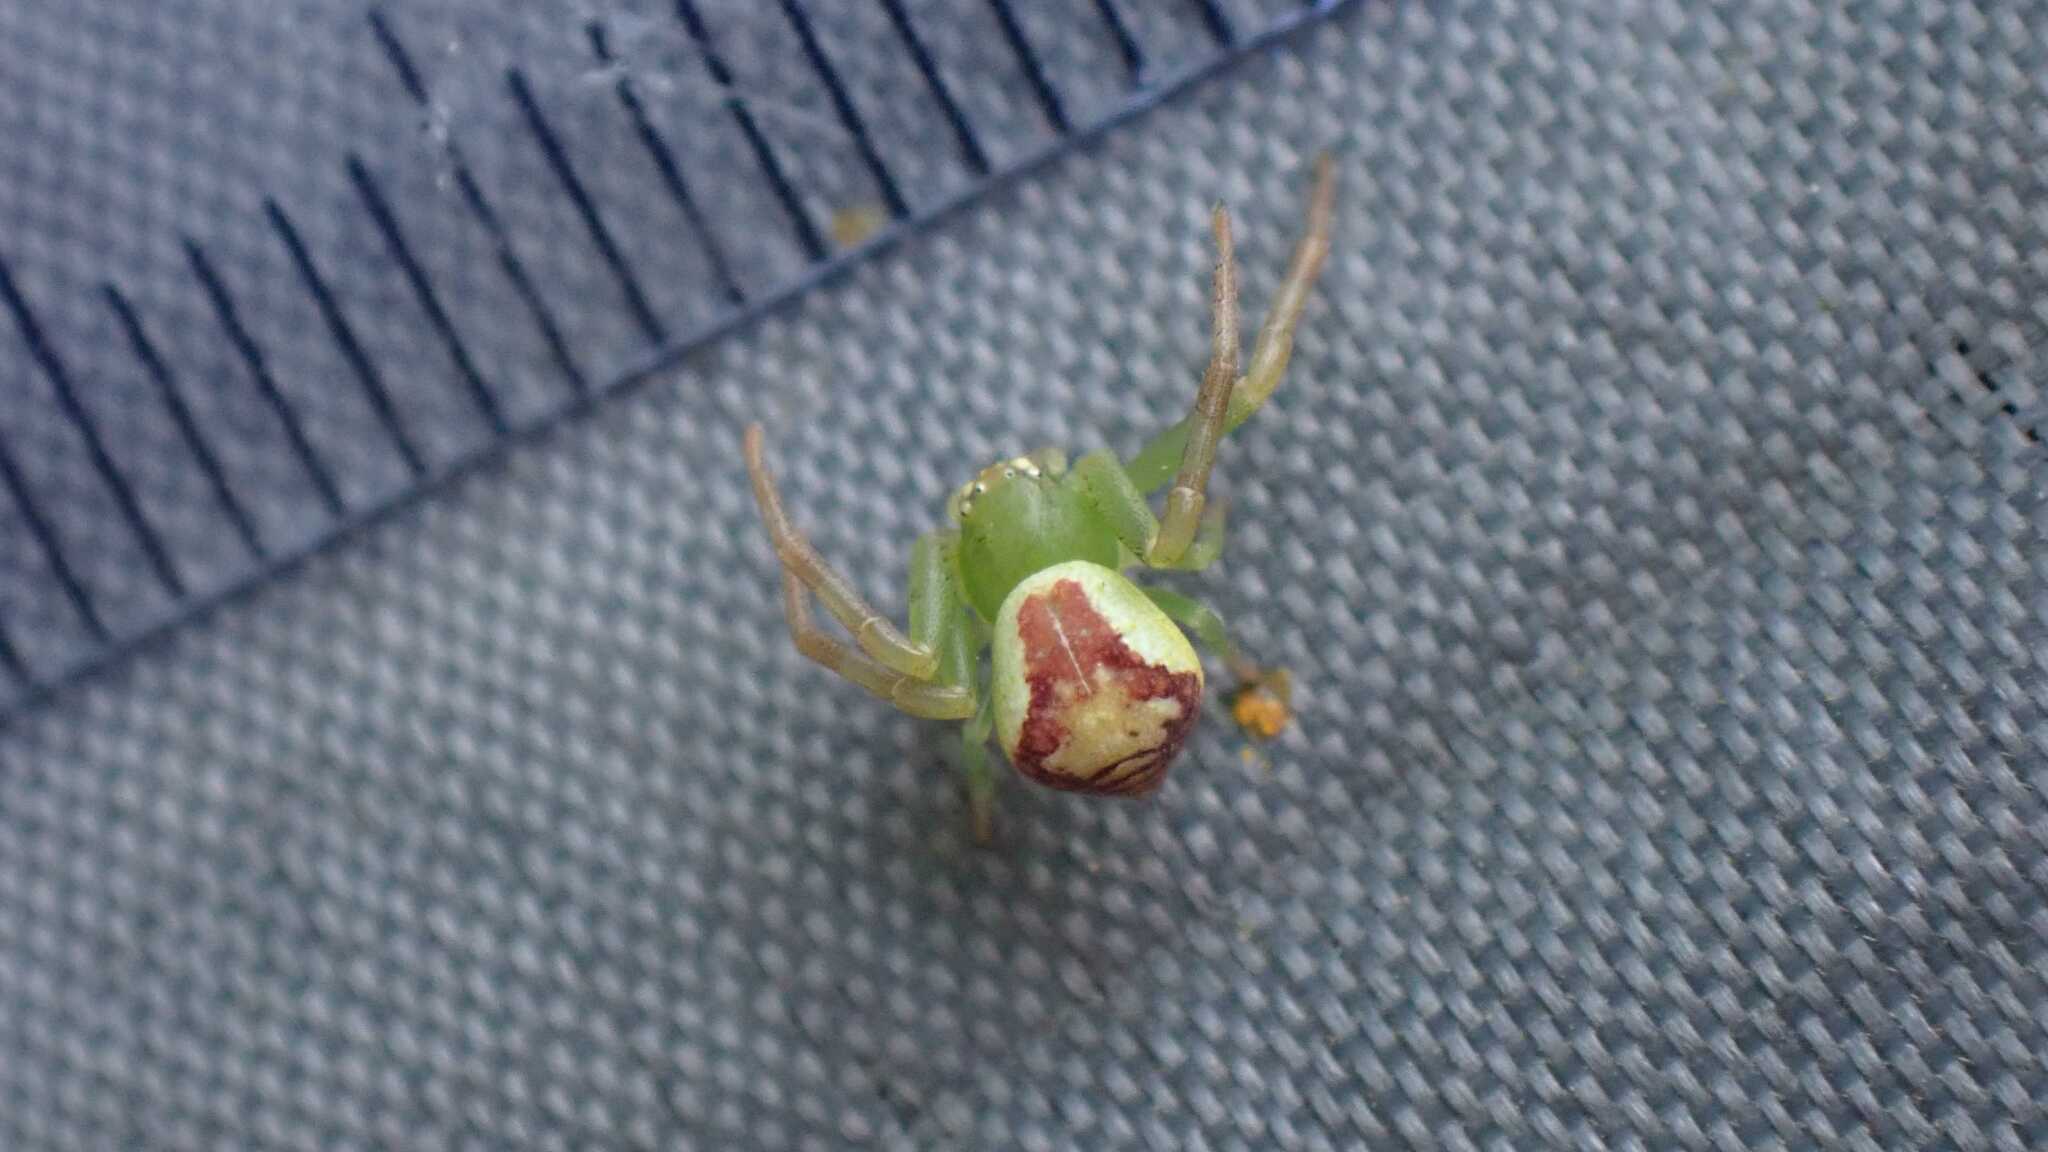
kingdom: Animalia
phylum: Arthropoda
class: Arachnida
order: Araneae
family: Thomisidae
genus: Ebrechtella
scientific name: Ebrechtella tricuspidata
